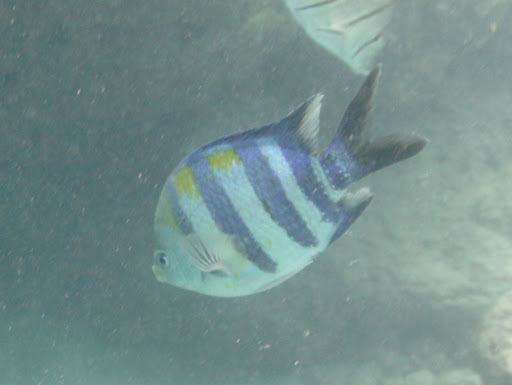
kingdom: Animalia
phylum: Chordata
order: Perciformes
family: Pomacentridae
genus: Abudefduf
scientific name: Abudefduf vaigiensis
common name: Indo-pacific sergeant
